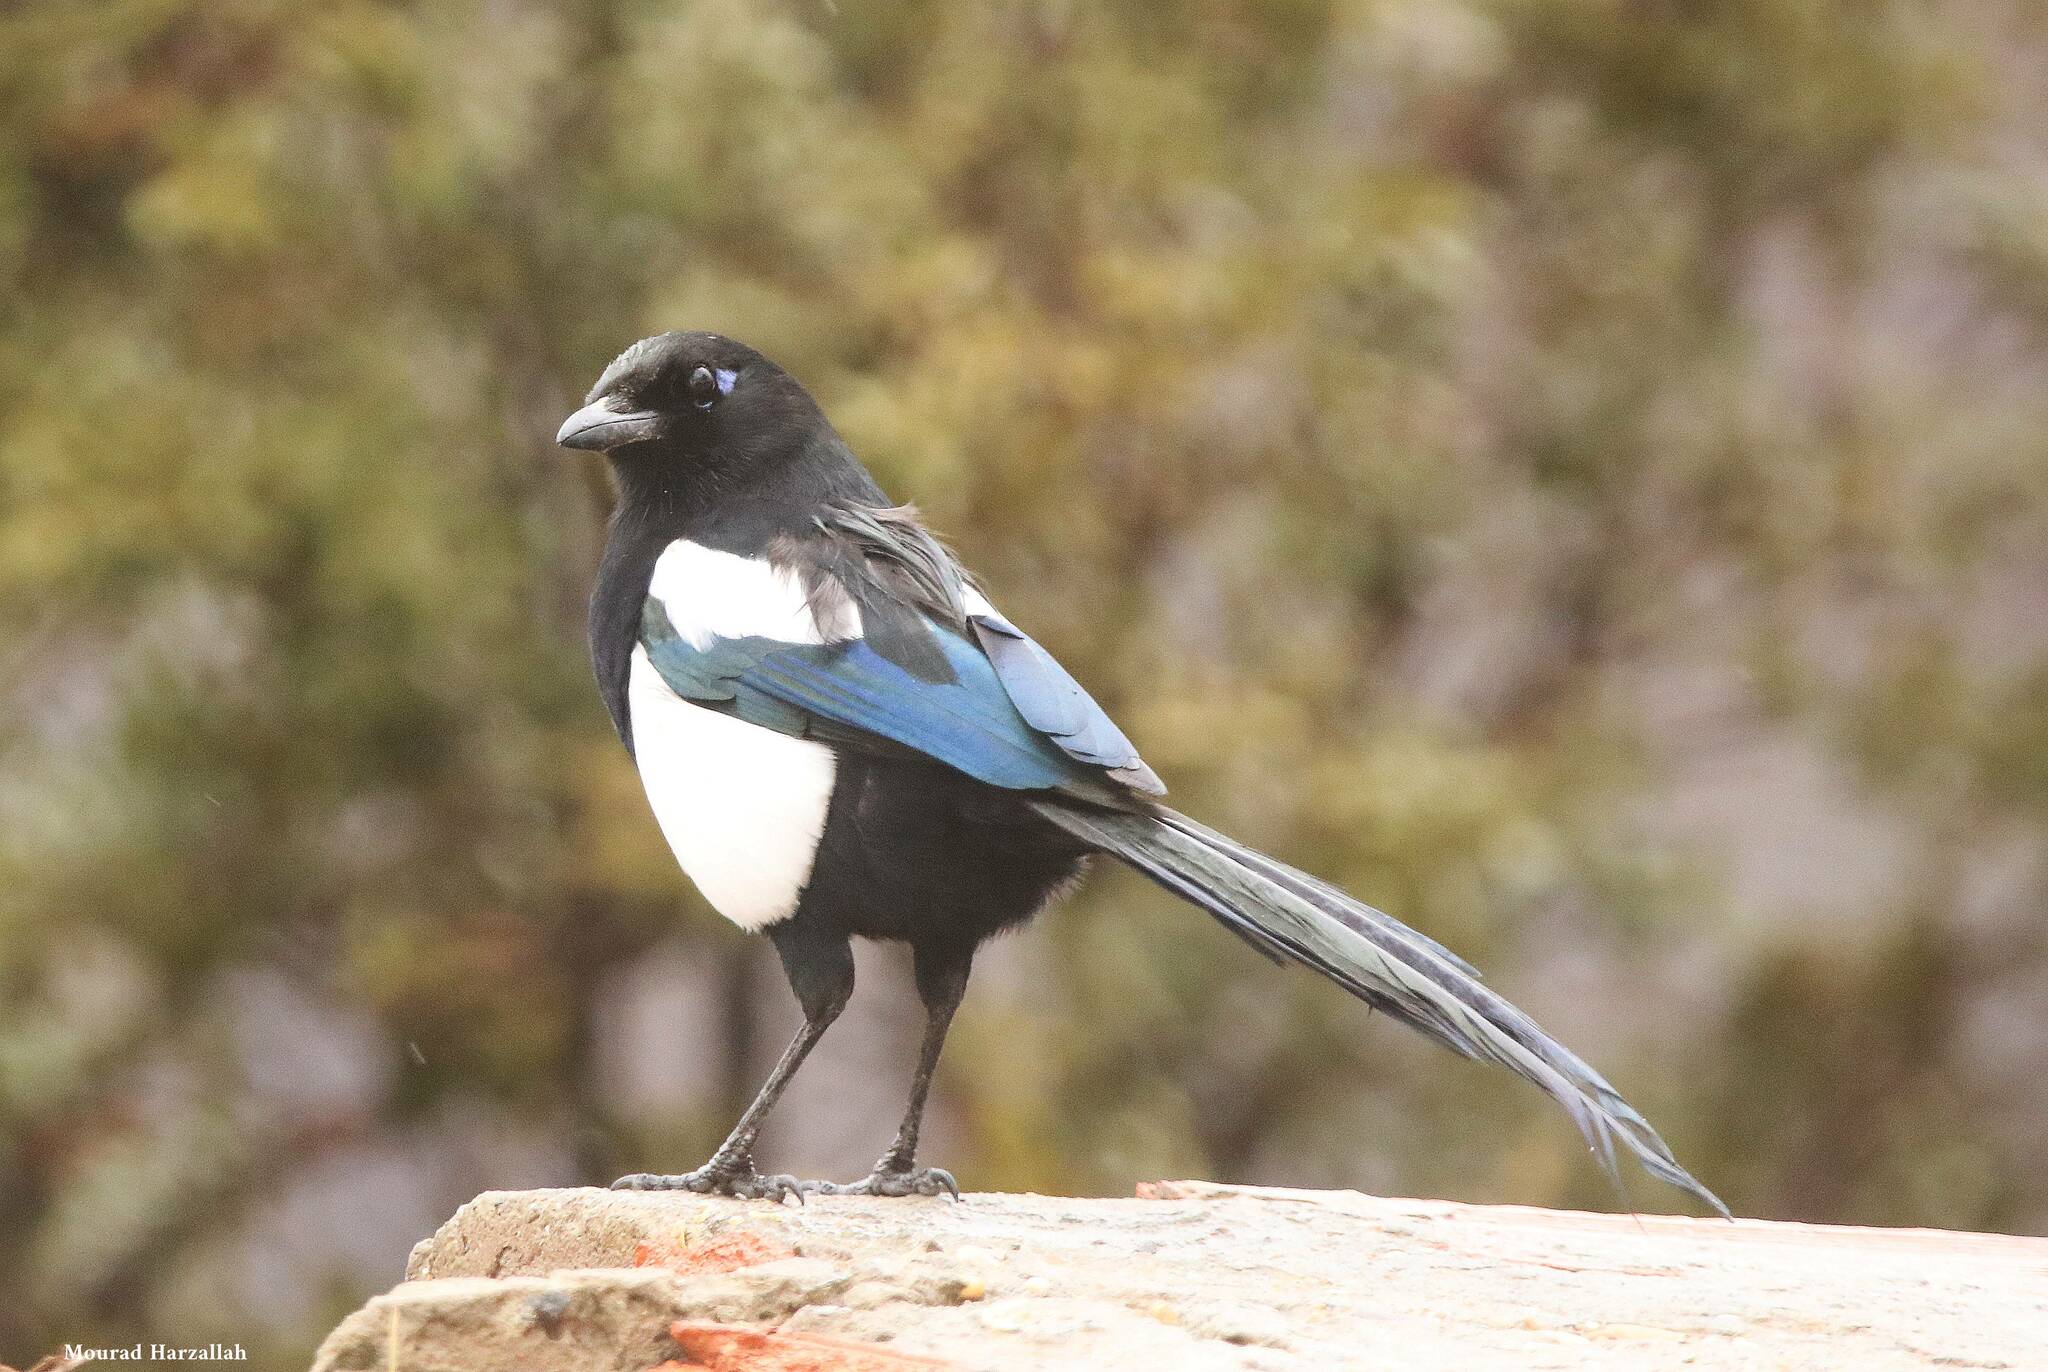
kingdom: Animalia
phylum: Chordata
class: Aves
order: Passeriformes
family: Corvidae
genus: Pica
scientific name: Pica mauritanica
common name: Maghreb magpie
